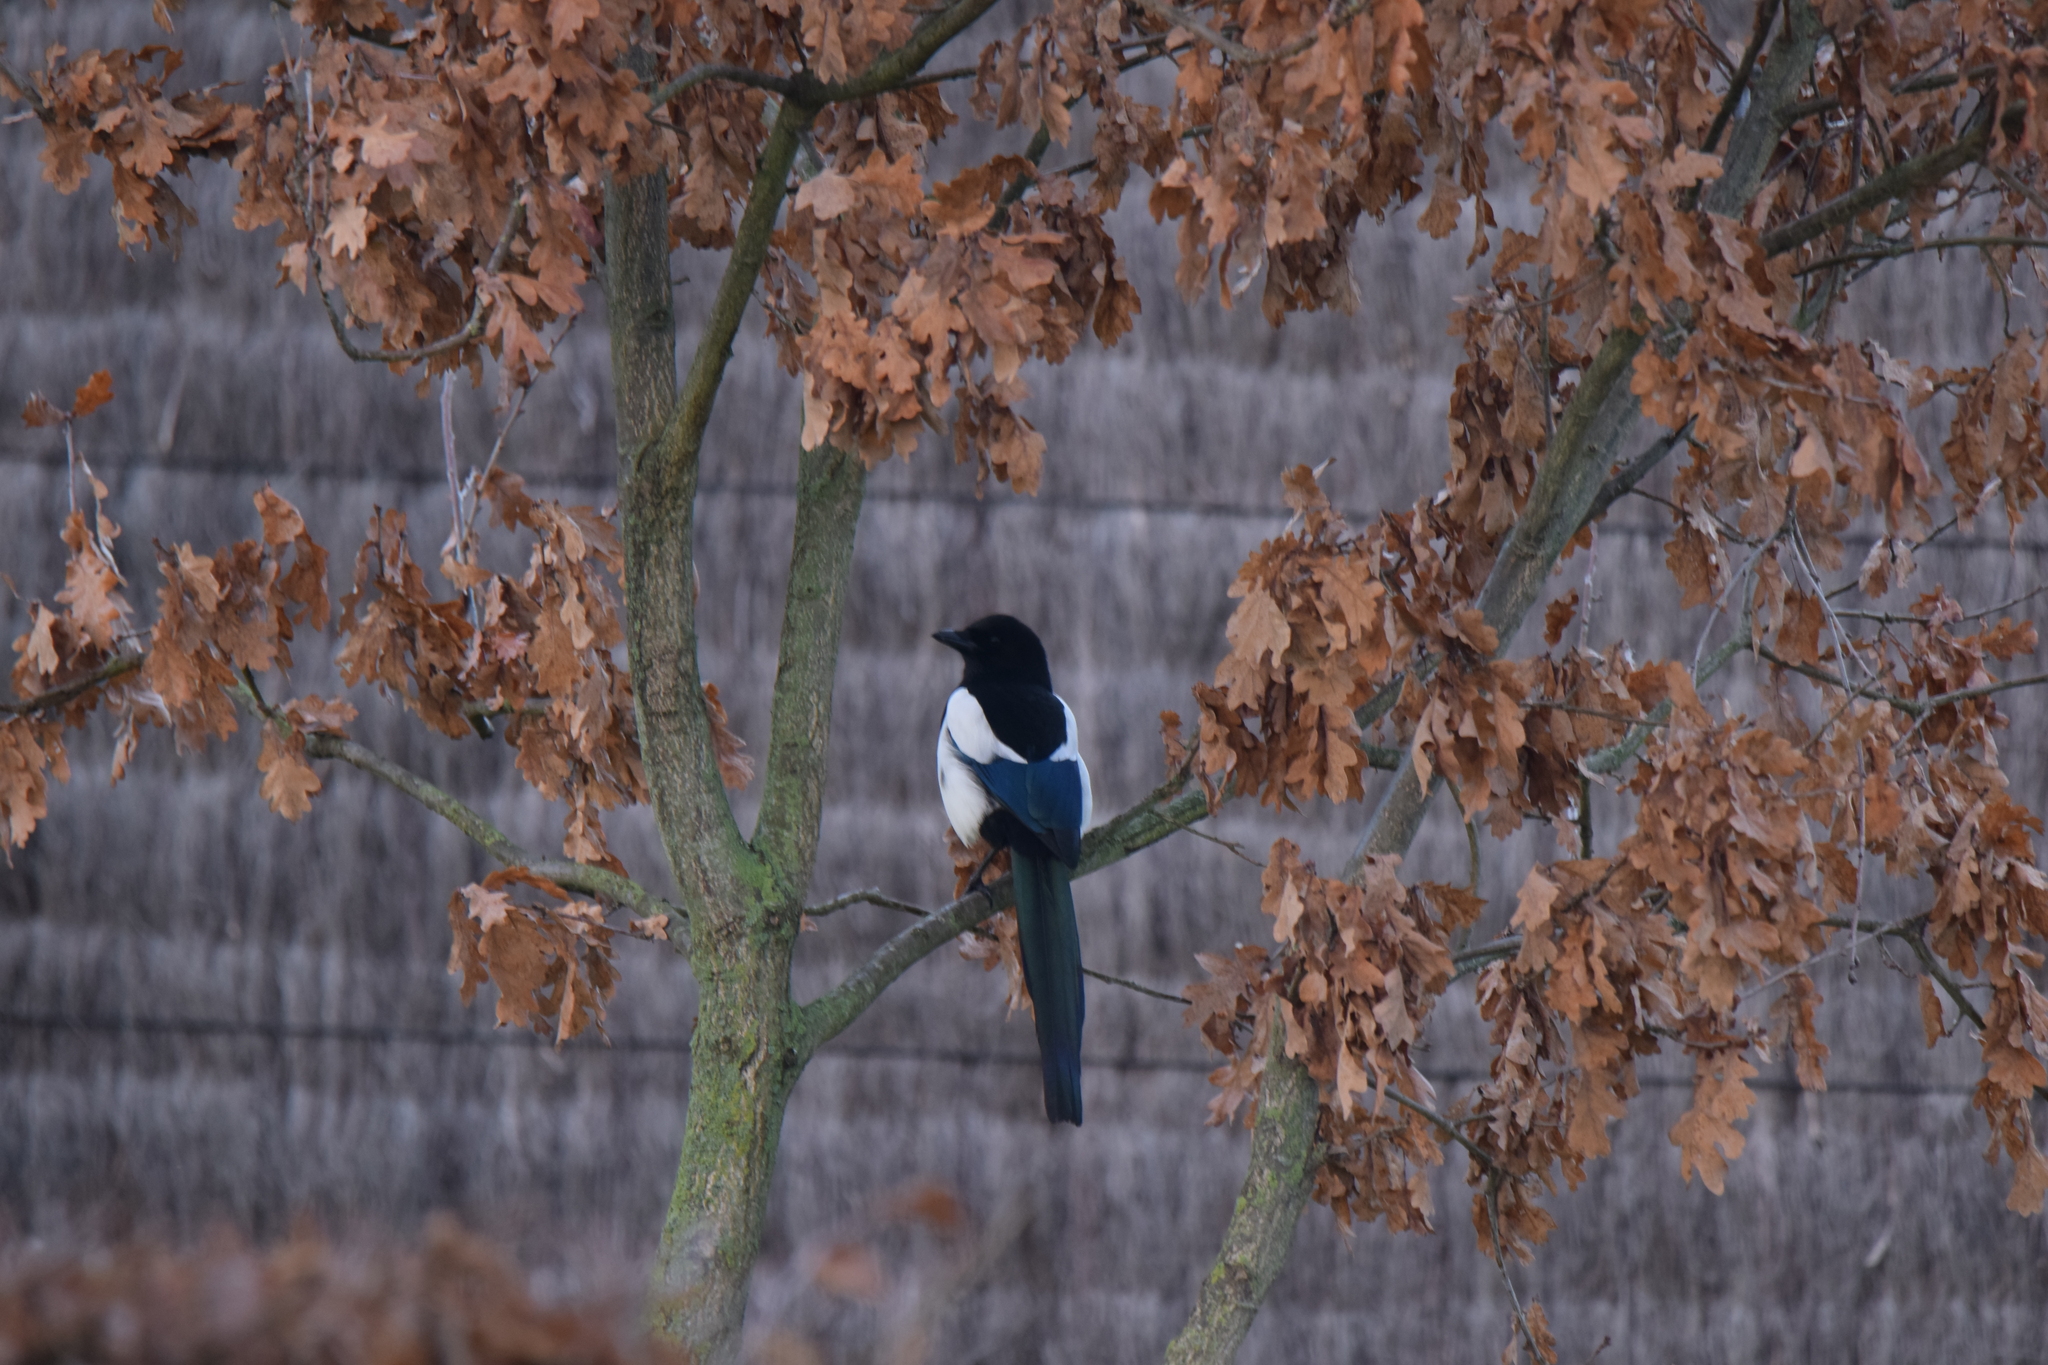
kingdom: Animalia
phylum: Chordata
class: Aves
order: Passeriformes
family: Corvidae
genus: Pica
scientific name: Pica pica
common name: Eurasian magpie
